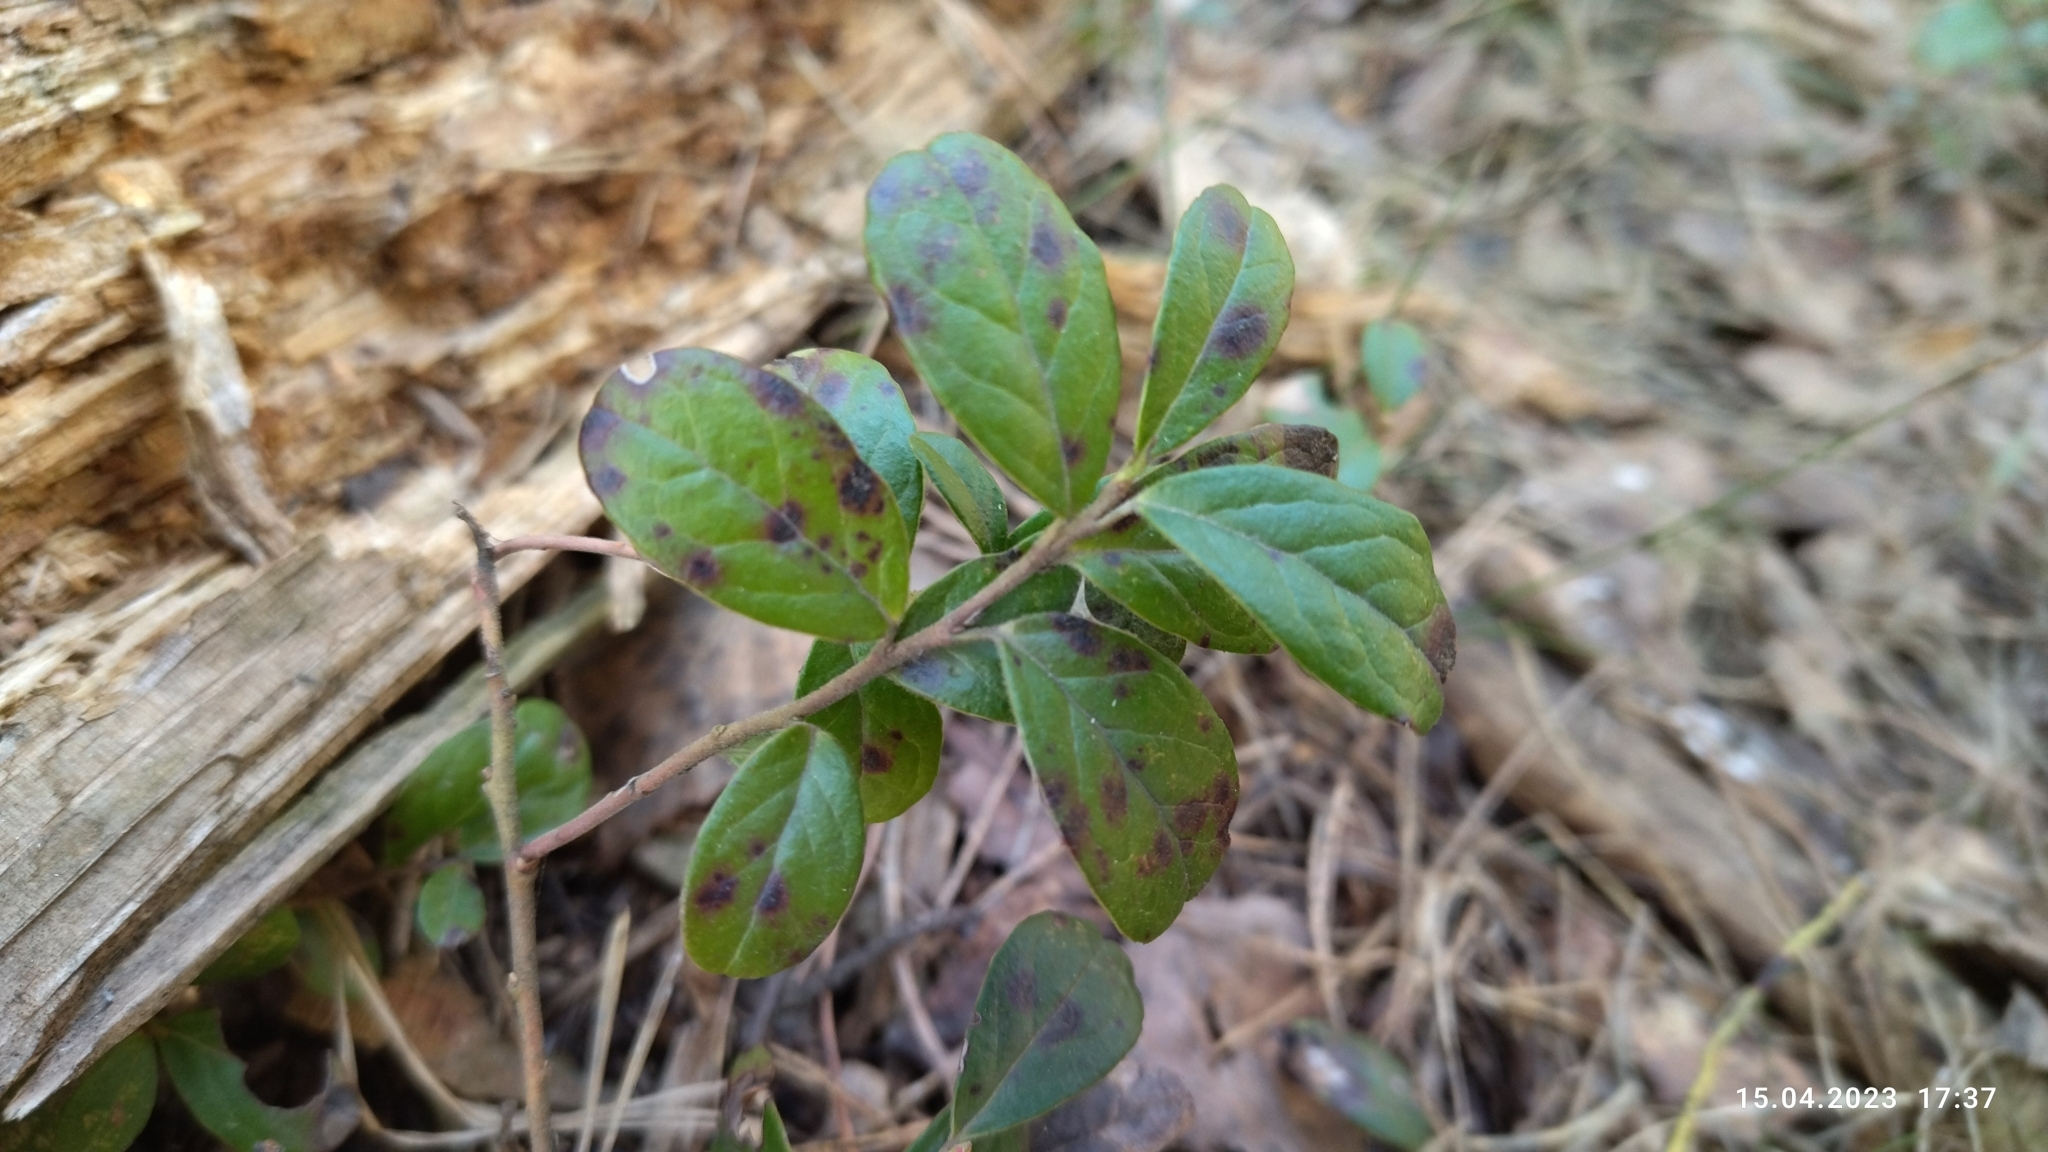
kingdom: Plantae
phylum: Tracheophyta
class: Magnoliopsida
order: Ericales
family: Ericaceae
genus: Vaccinium
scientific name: Vaccinium vitis-idaea
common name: Cowberry
